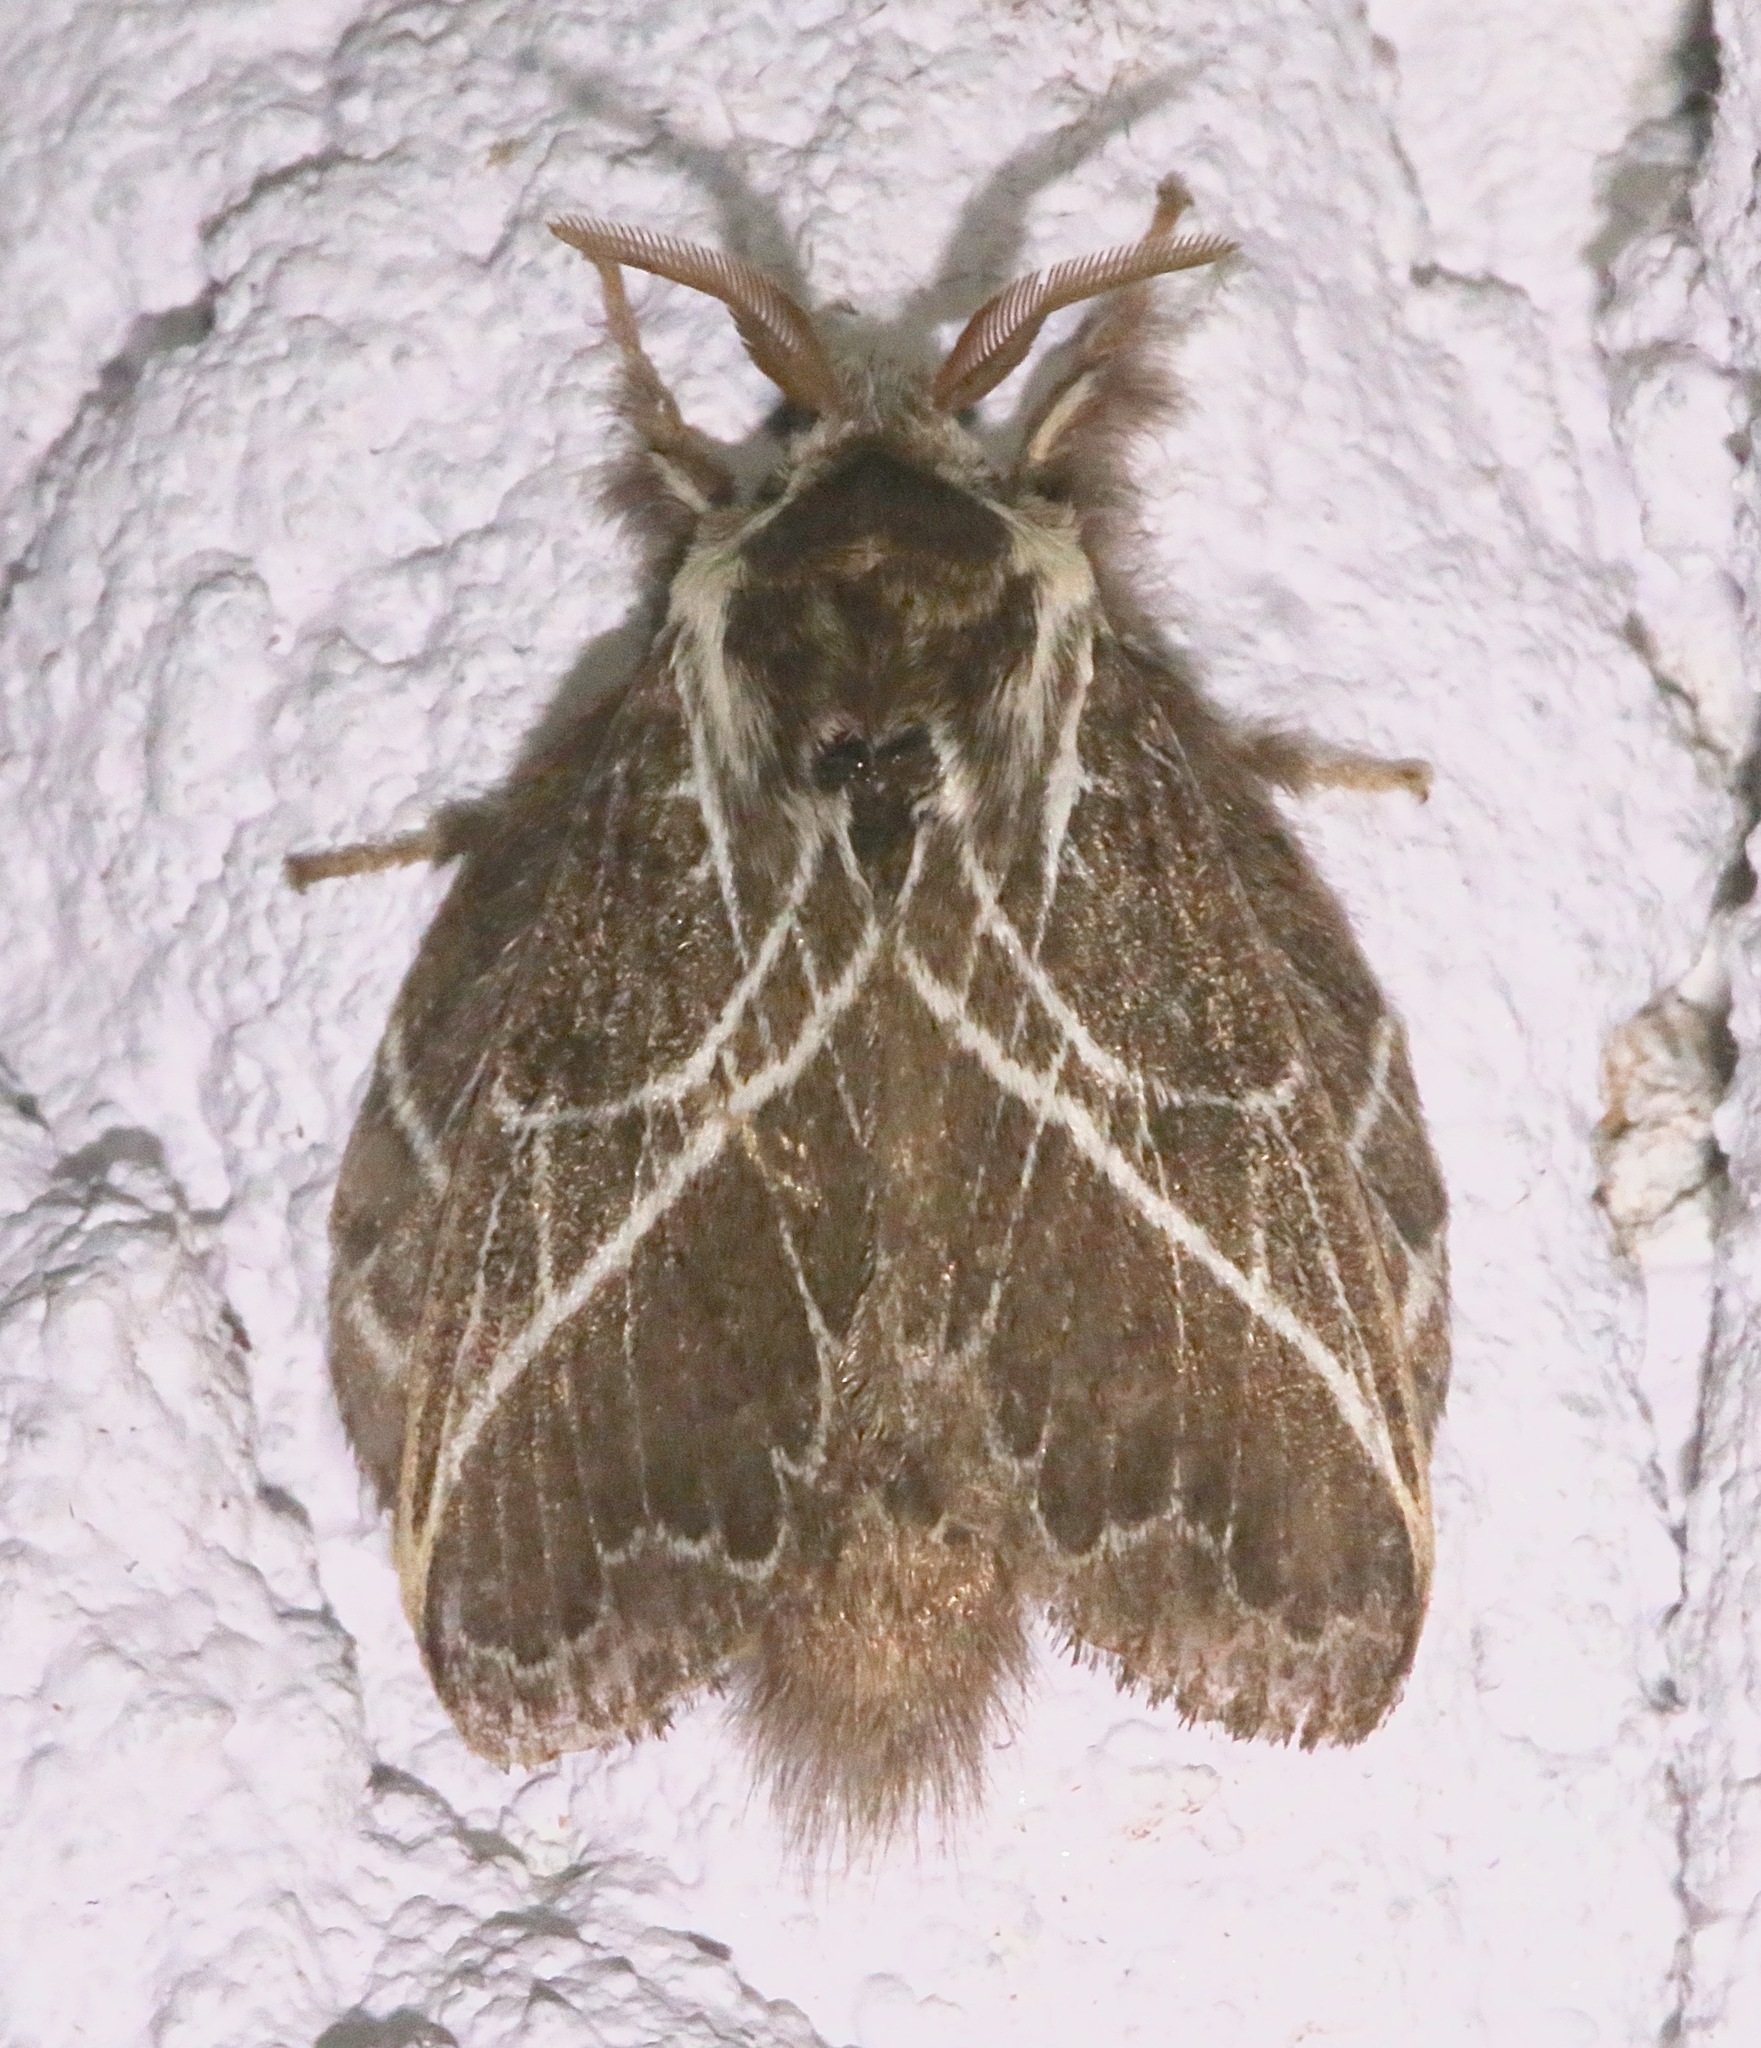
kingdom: Animalia
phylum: Arthropoda
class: Insecta
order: Lepidoptera
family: Lasiocampidae
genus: Euglyphis
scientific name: Euglyphis laudia
